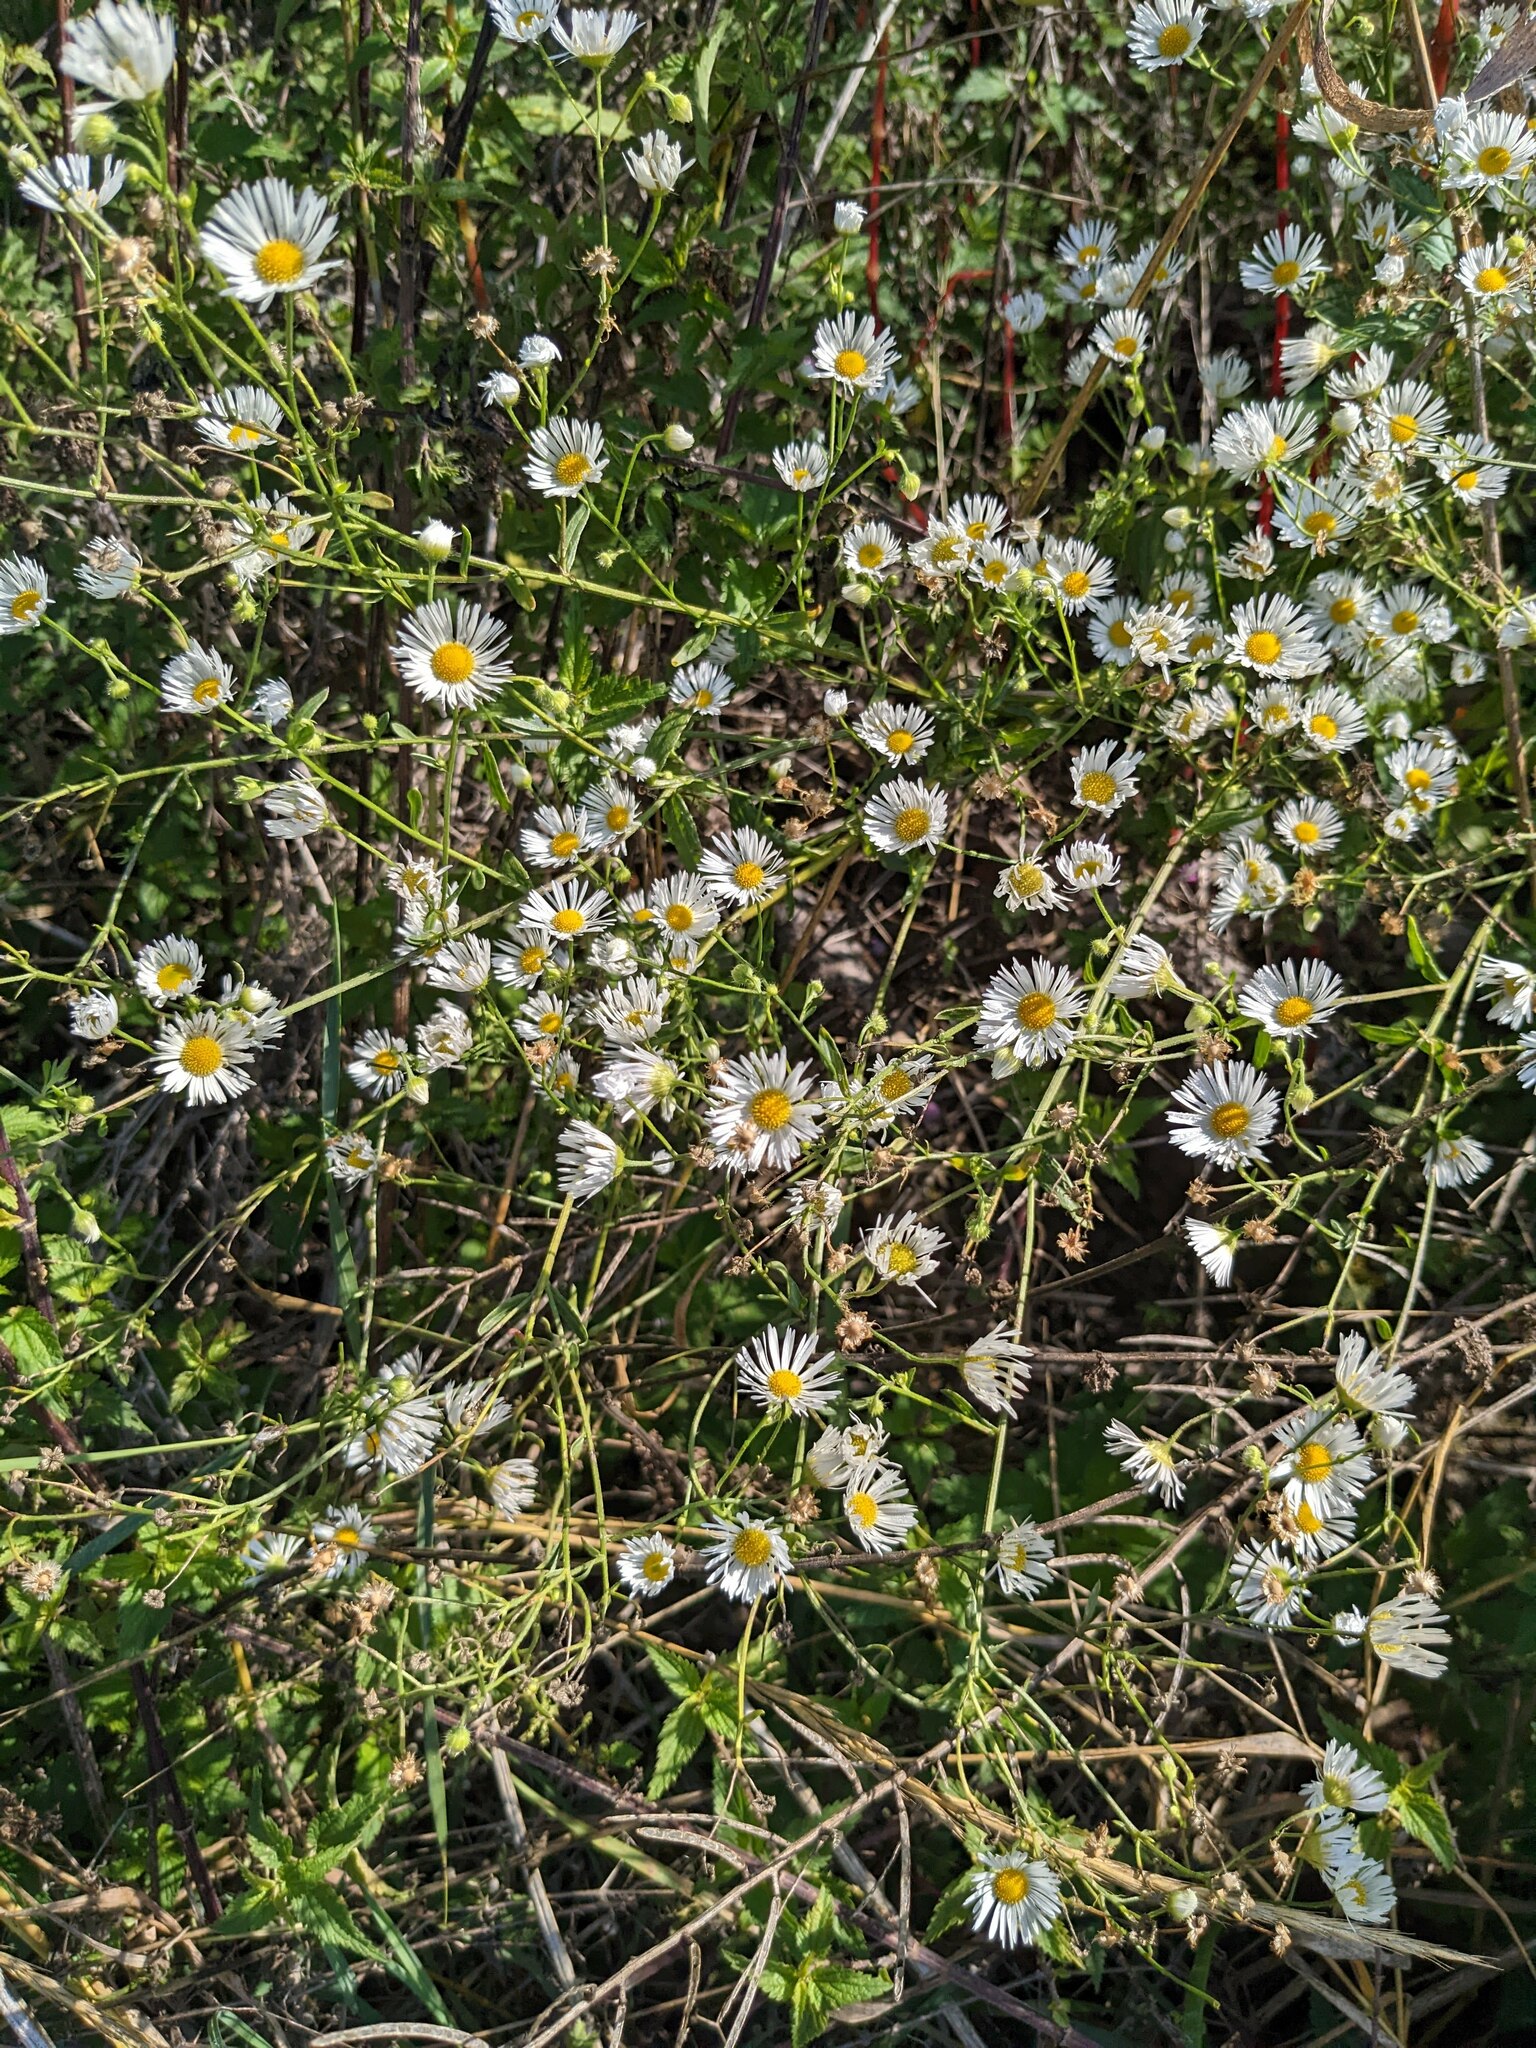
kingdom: Plantae
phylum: Tracheophyta
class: Magnoliopsida
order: Asterales
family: Asteraceae
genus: Erigeron
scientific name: Erigeron annuus
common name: Tall fleabane
